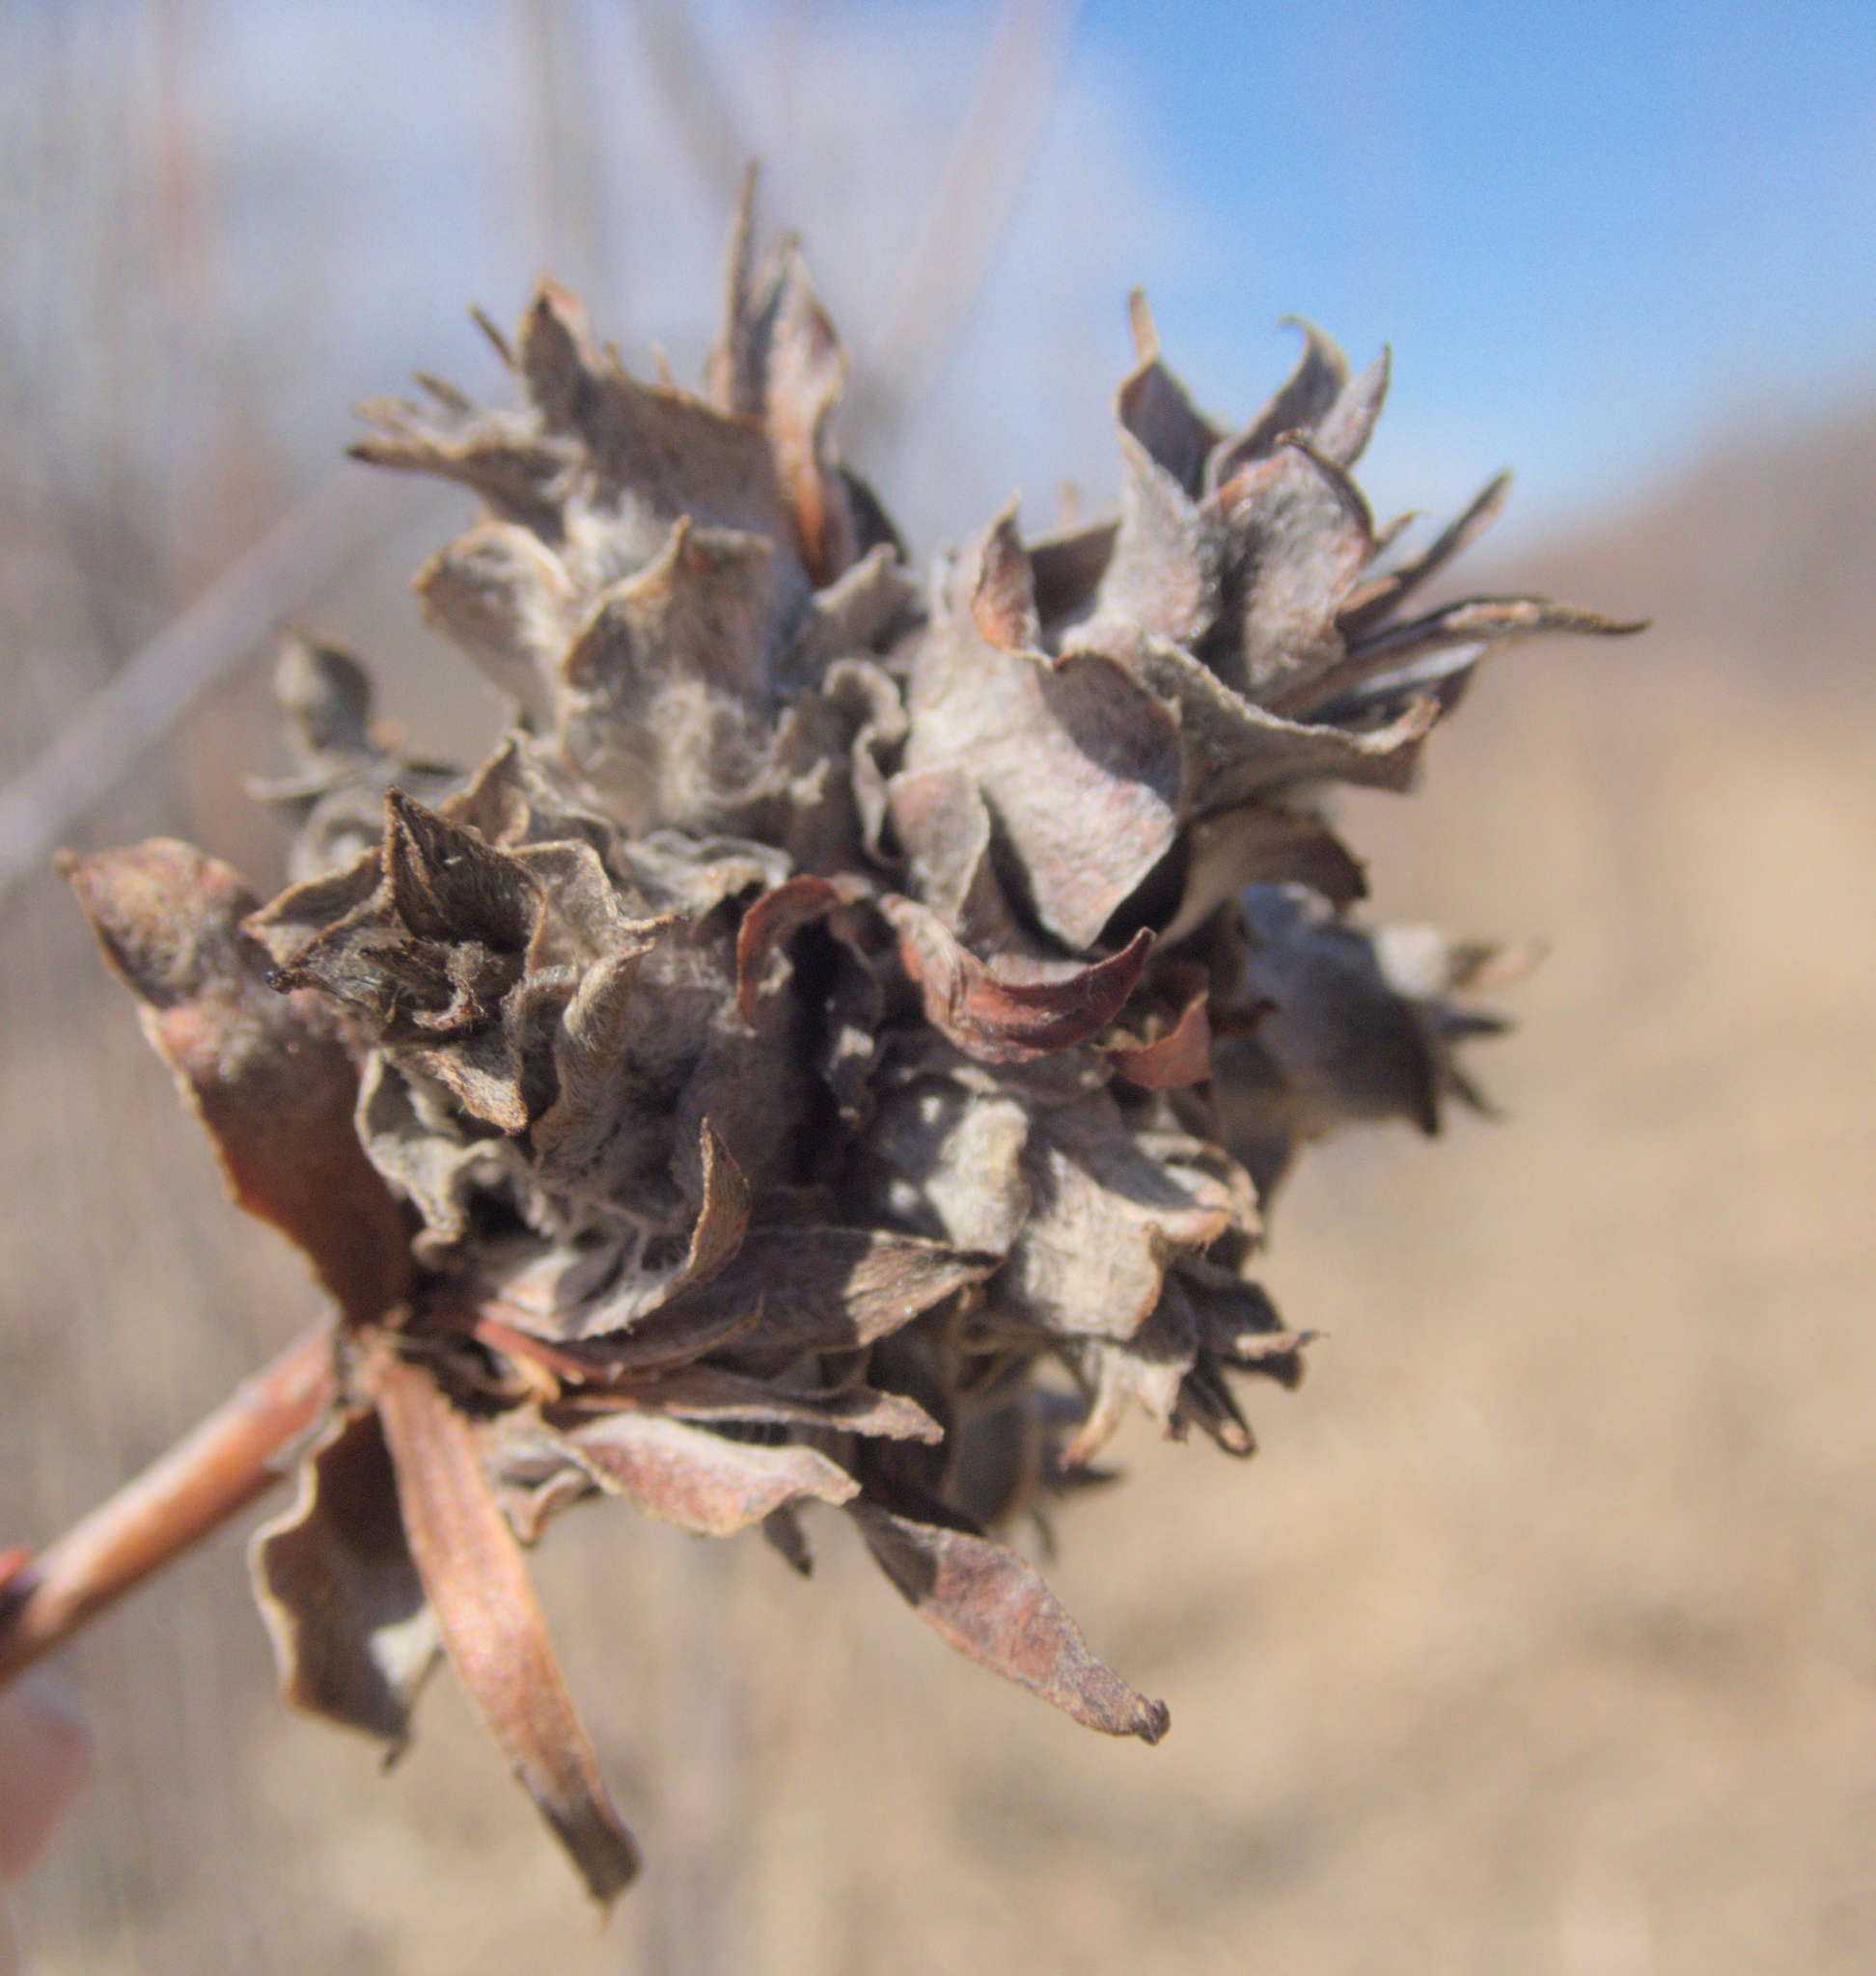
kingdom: Animalia
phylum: Arthropoda
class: Insecta
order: Diptera
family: Cecidomyiidae
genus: Rabdophaga
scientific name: Rabdophaga salicisbrassicoides
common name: Willow cabbagegall midge
